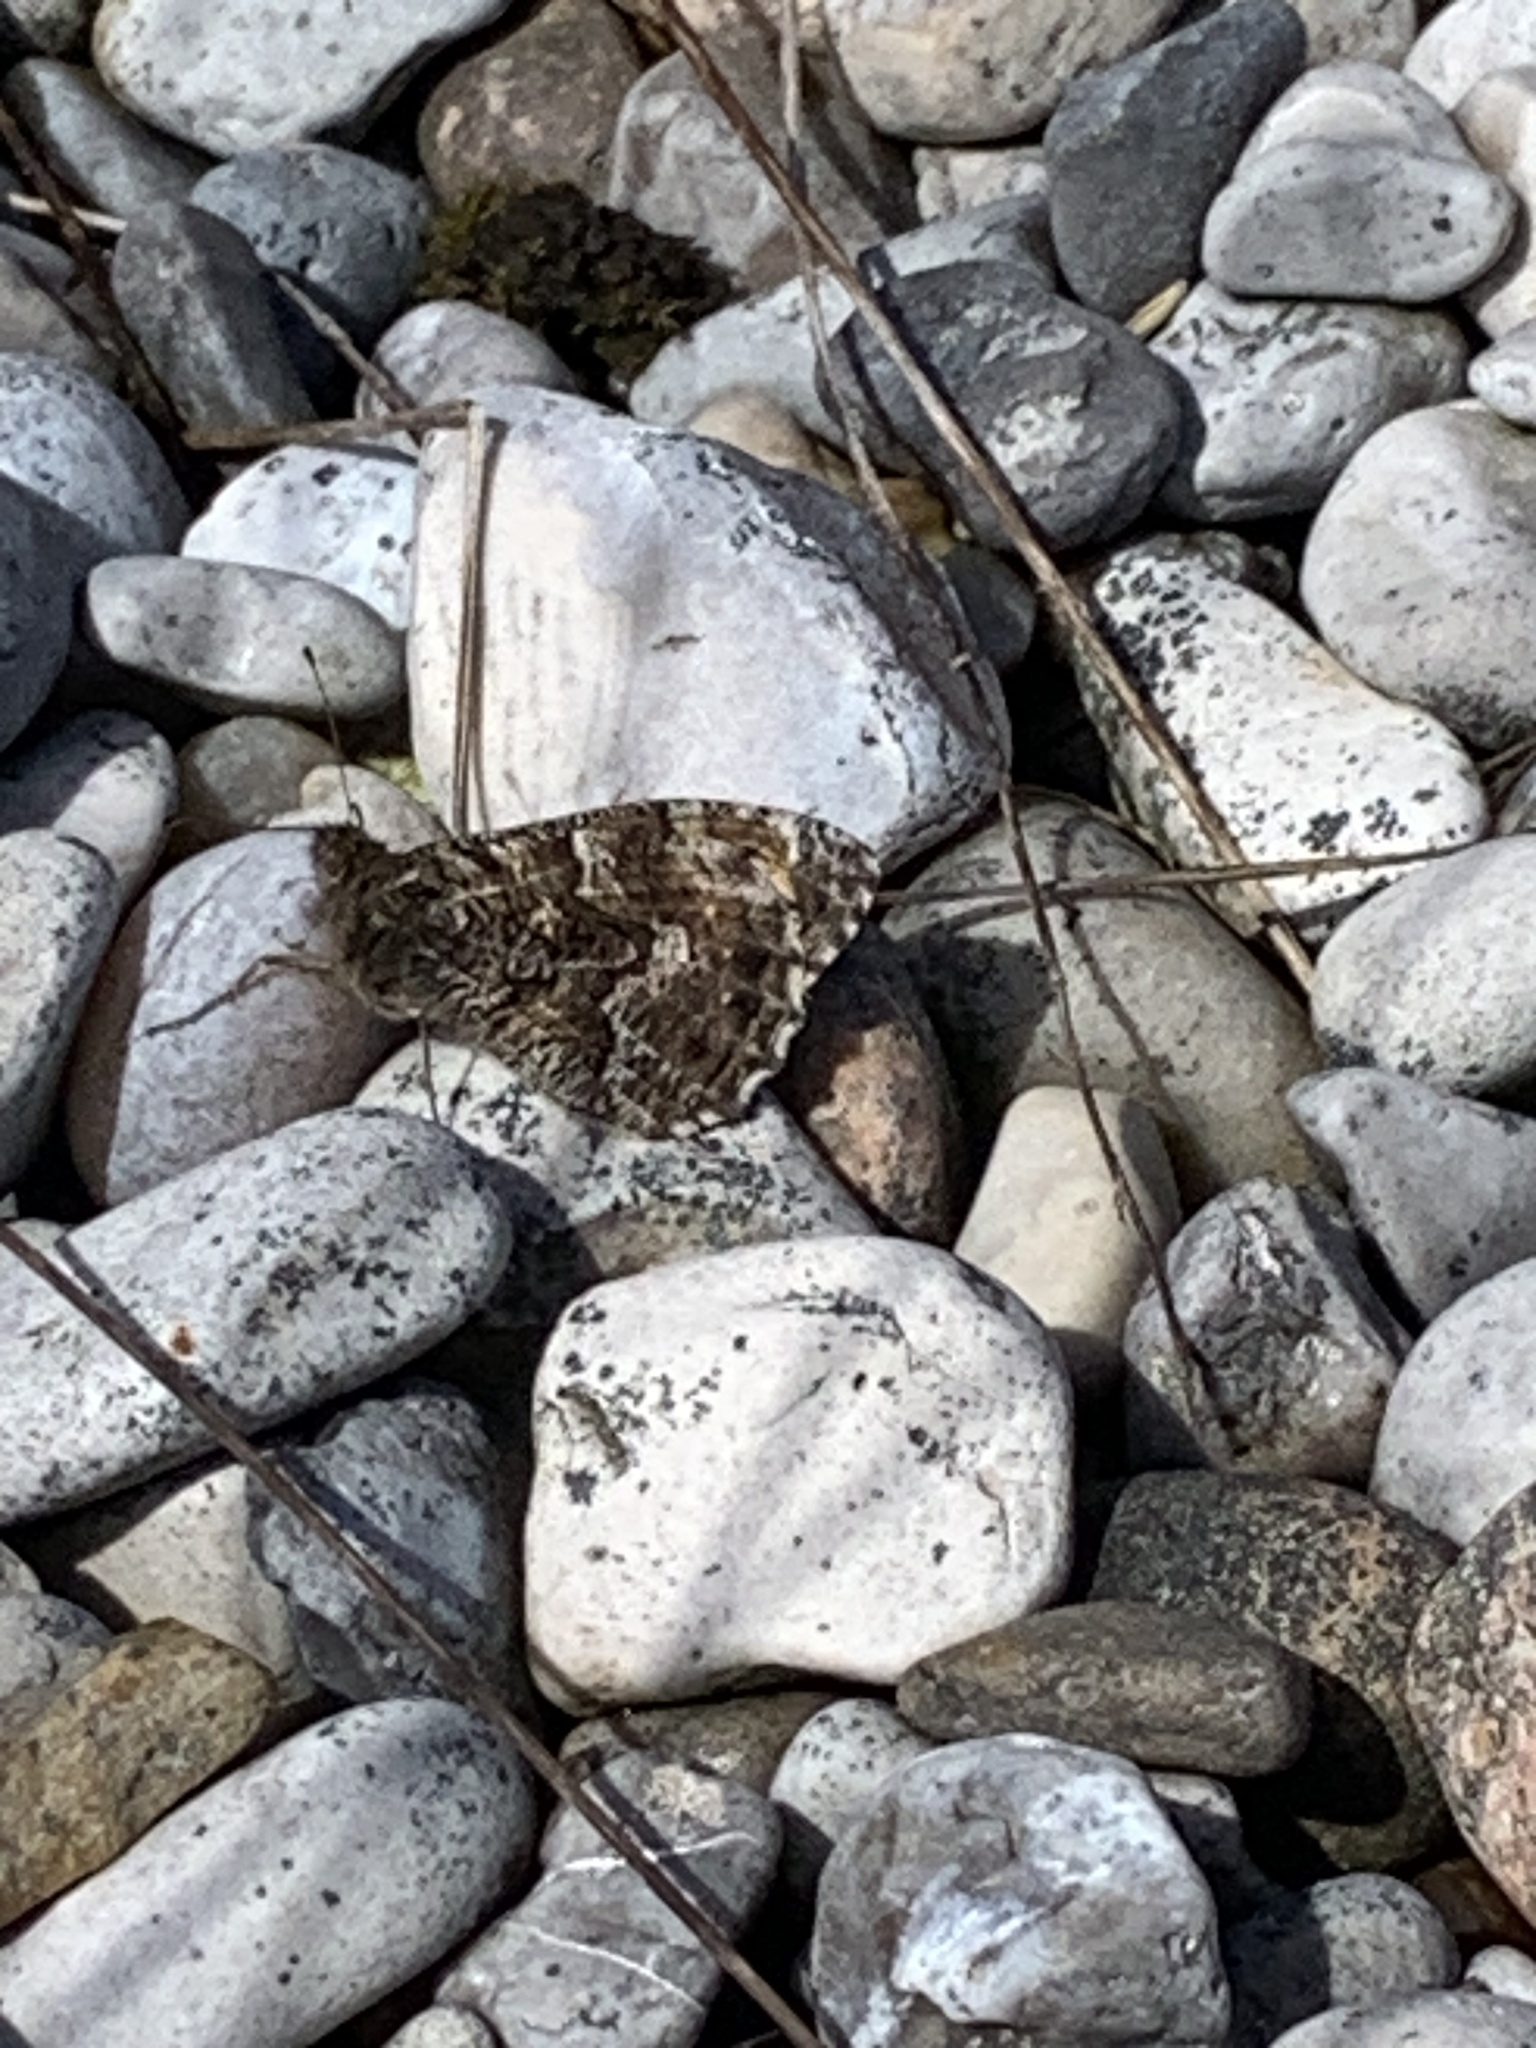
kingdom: Animalia
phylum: Arthropoda
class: Insecta
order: Lepidoptera
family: Nymphalidae
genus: Hipparchia
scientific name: Hipparchia semele
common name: Grayling
